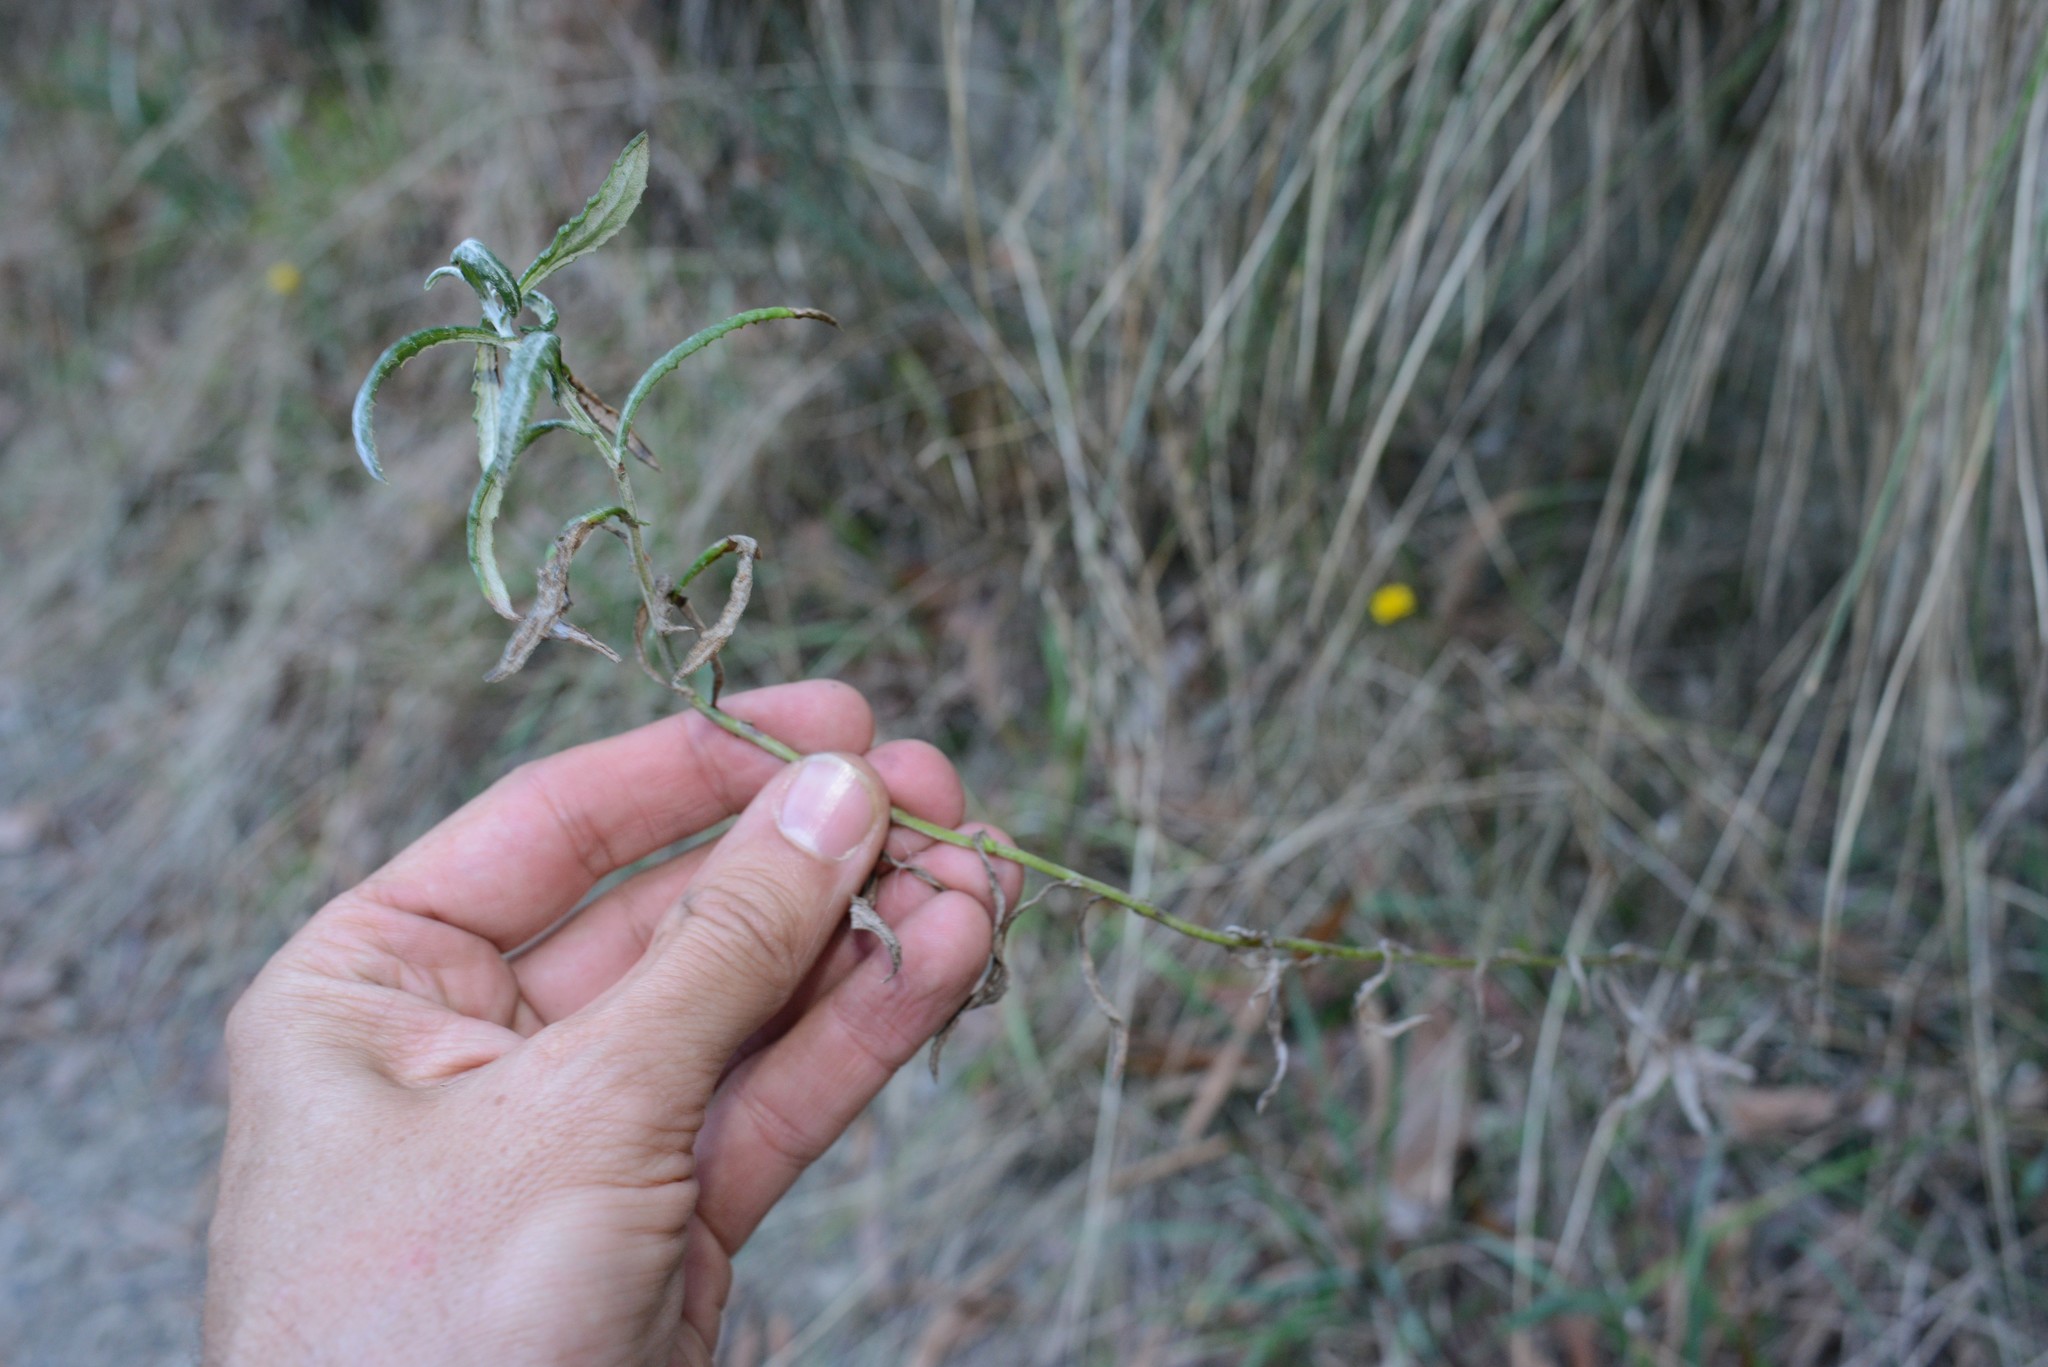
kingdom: Plantae
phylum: Tracheophyta
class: Magnoliopsida
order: Asterales
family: Asteraceae
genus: Senecio
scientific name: Senecio glomeratus
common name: Cutleaf burnweed
